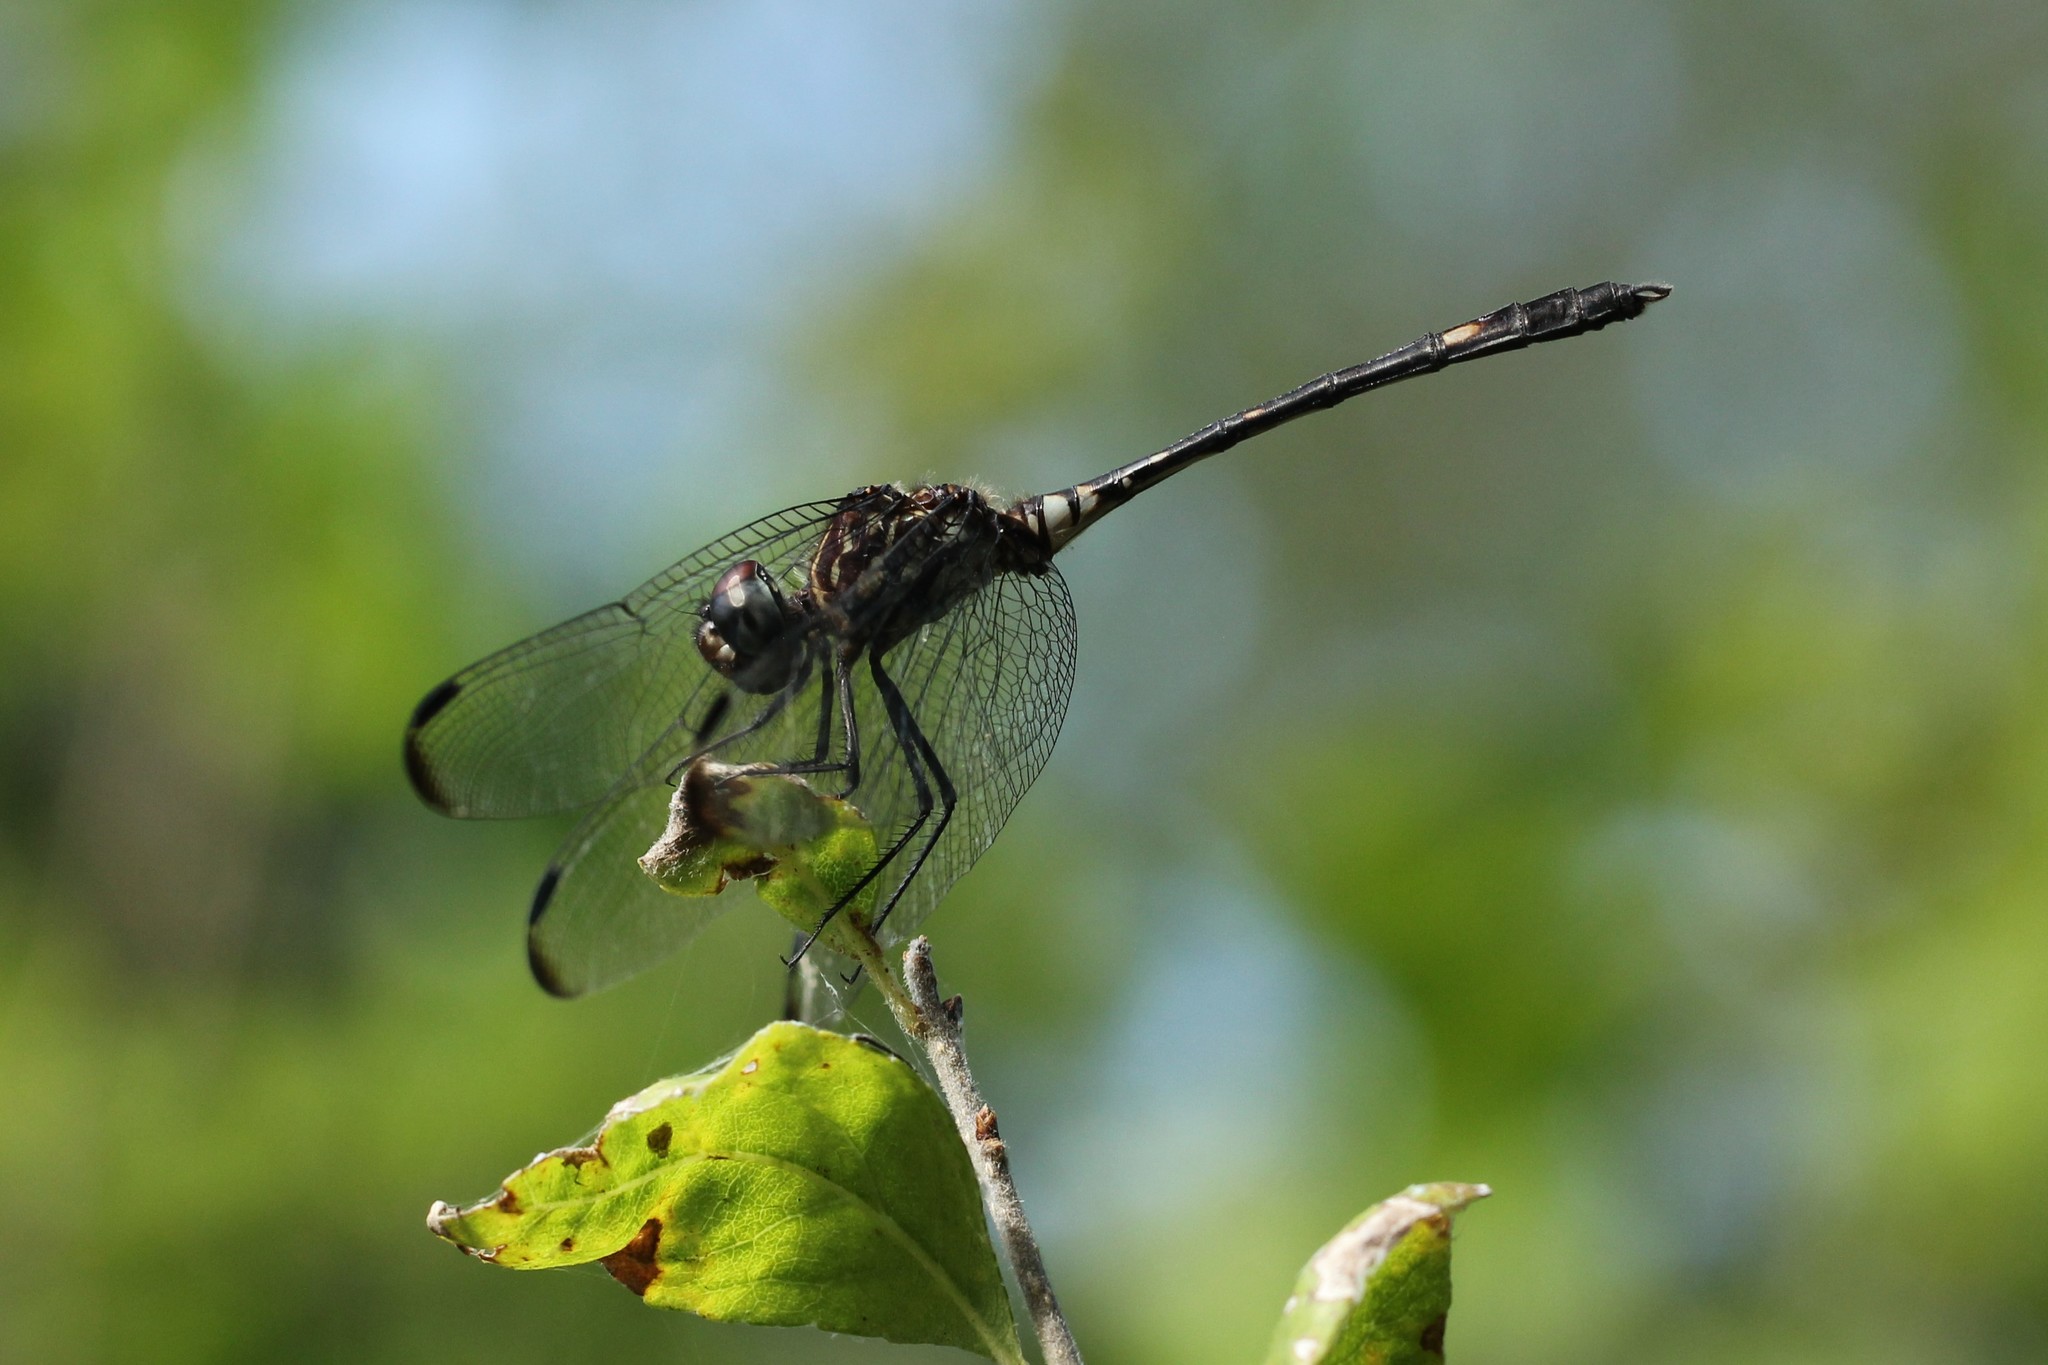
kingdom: Animalia
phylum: Arthropoda
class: Insecta
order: Odonata
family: Libellulidae
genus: Dythemis
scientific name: Dythemis fugax
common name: Checkered setwing
